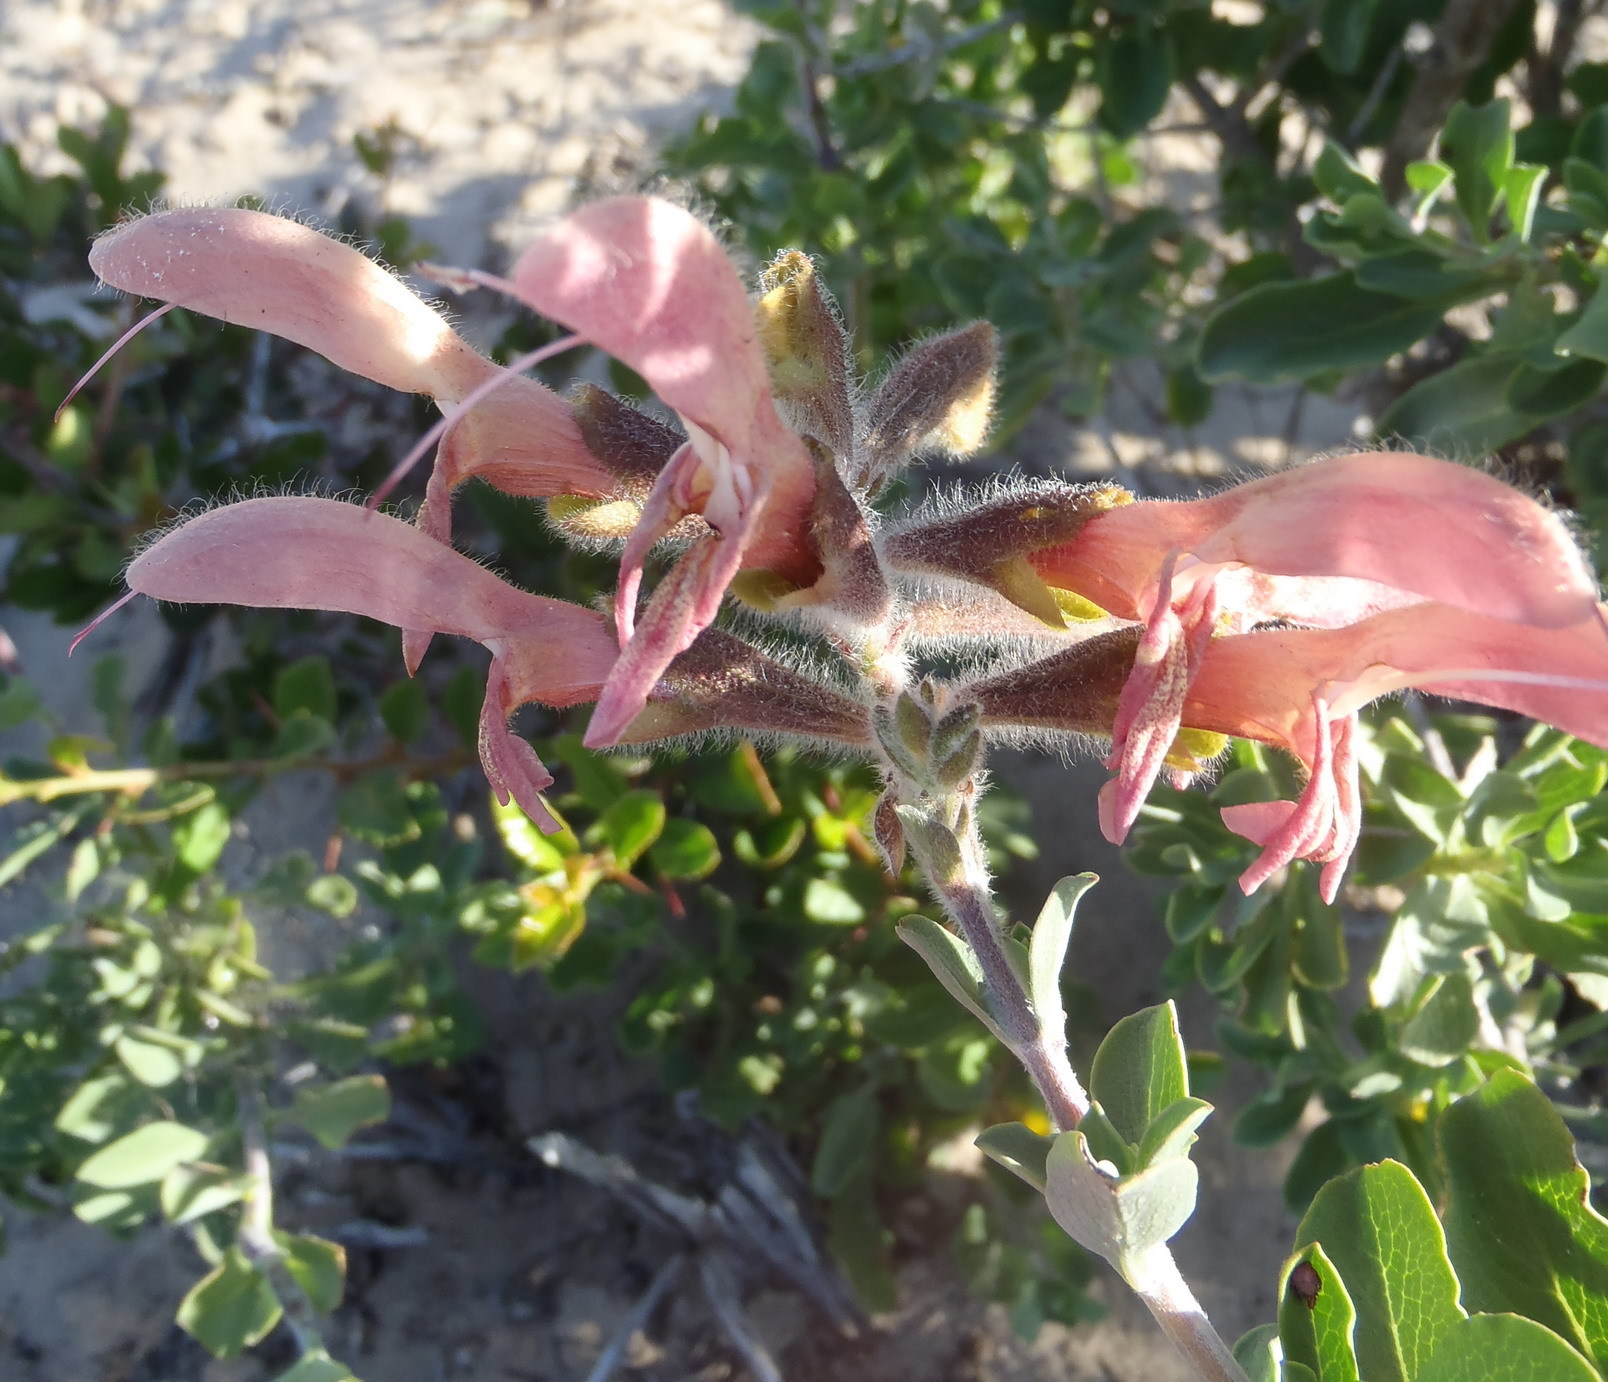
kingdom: Plantae
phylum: Tracheophyta
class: Magnoliopsida
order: Lamiales
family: Lamiaceae
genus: Salvia
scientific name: Salvia lanceolata
